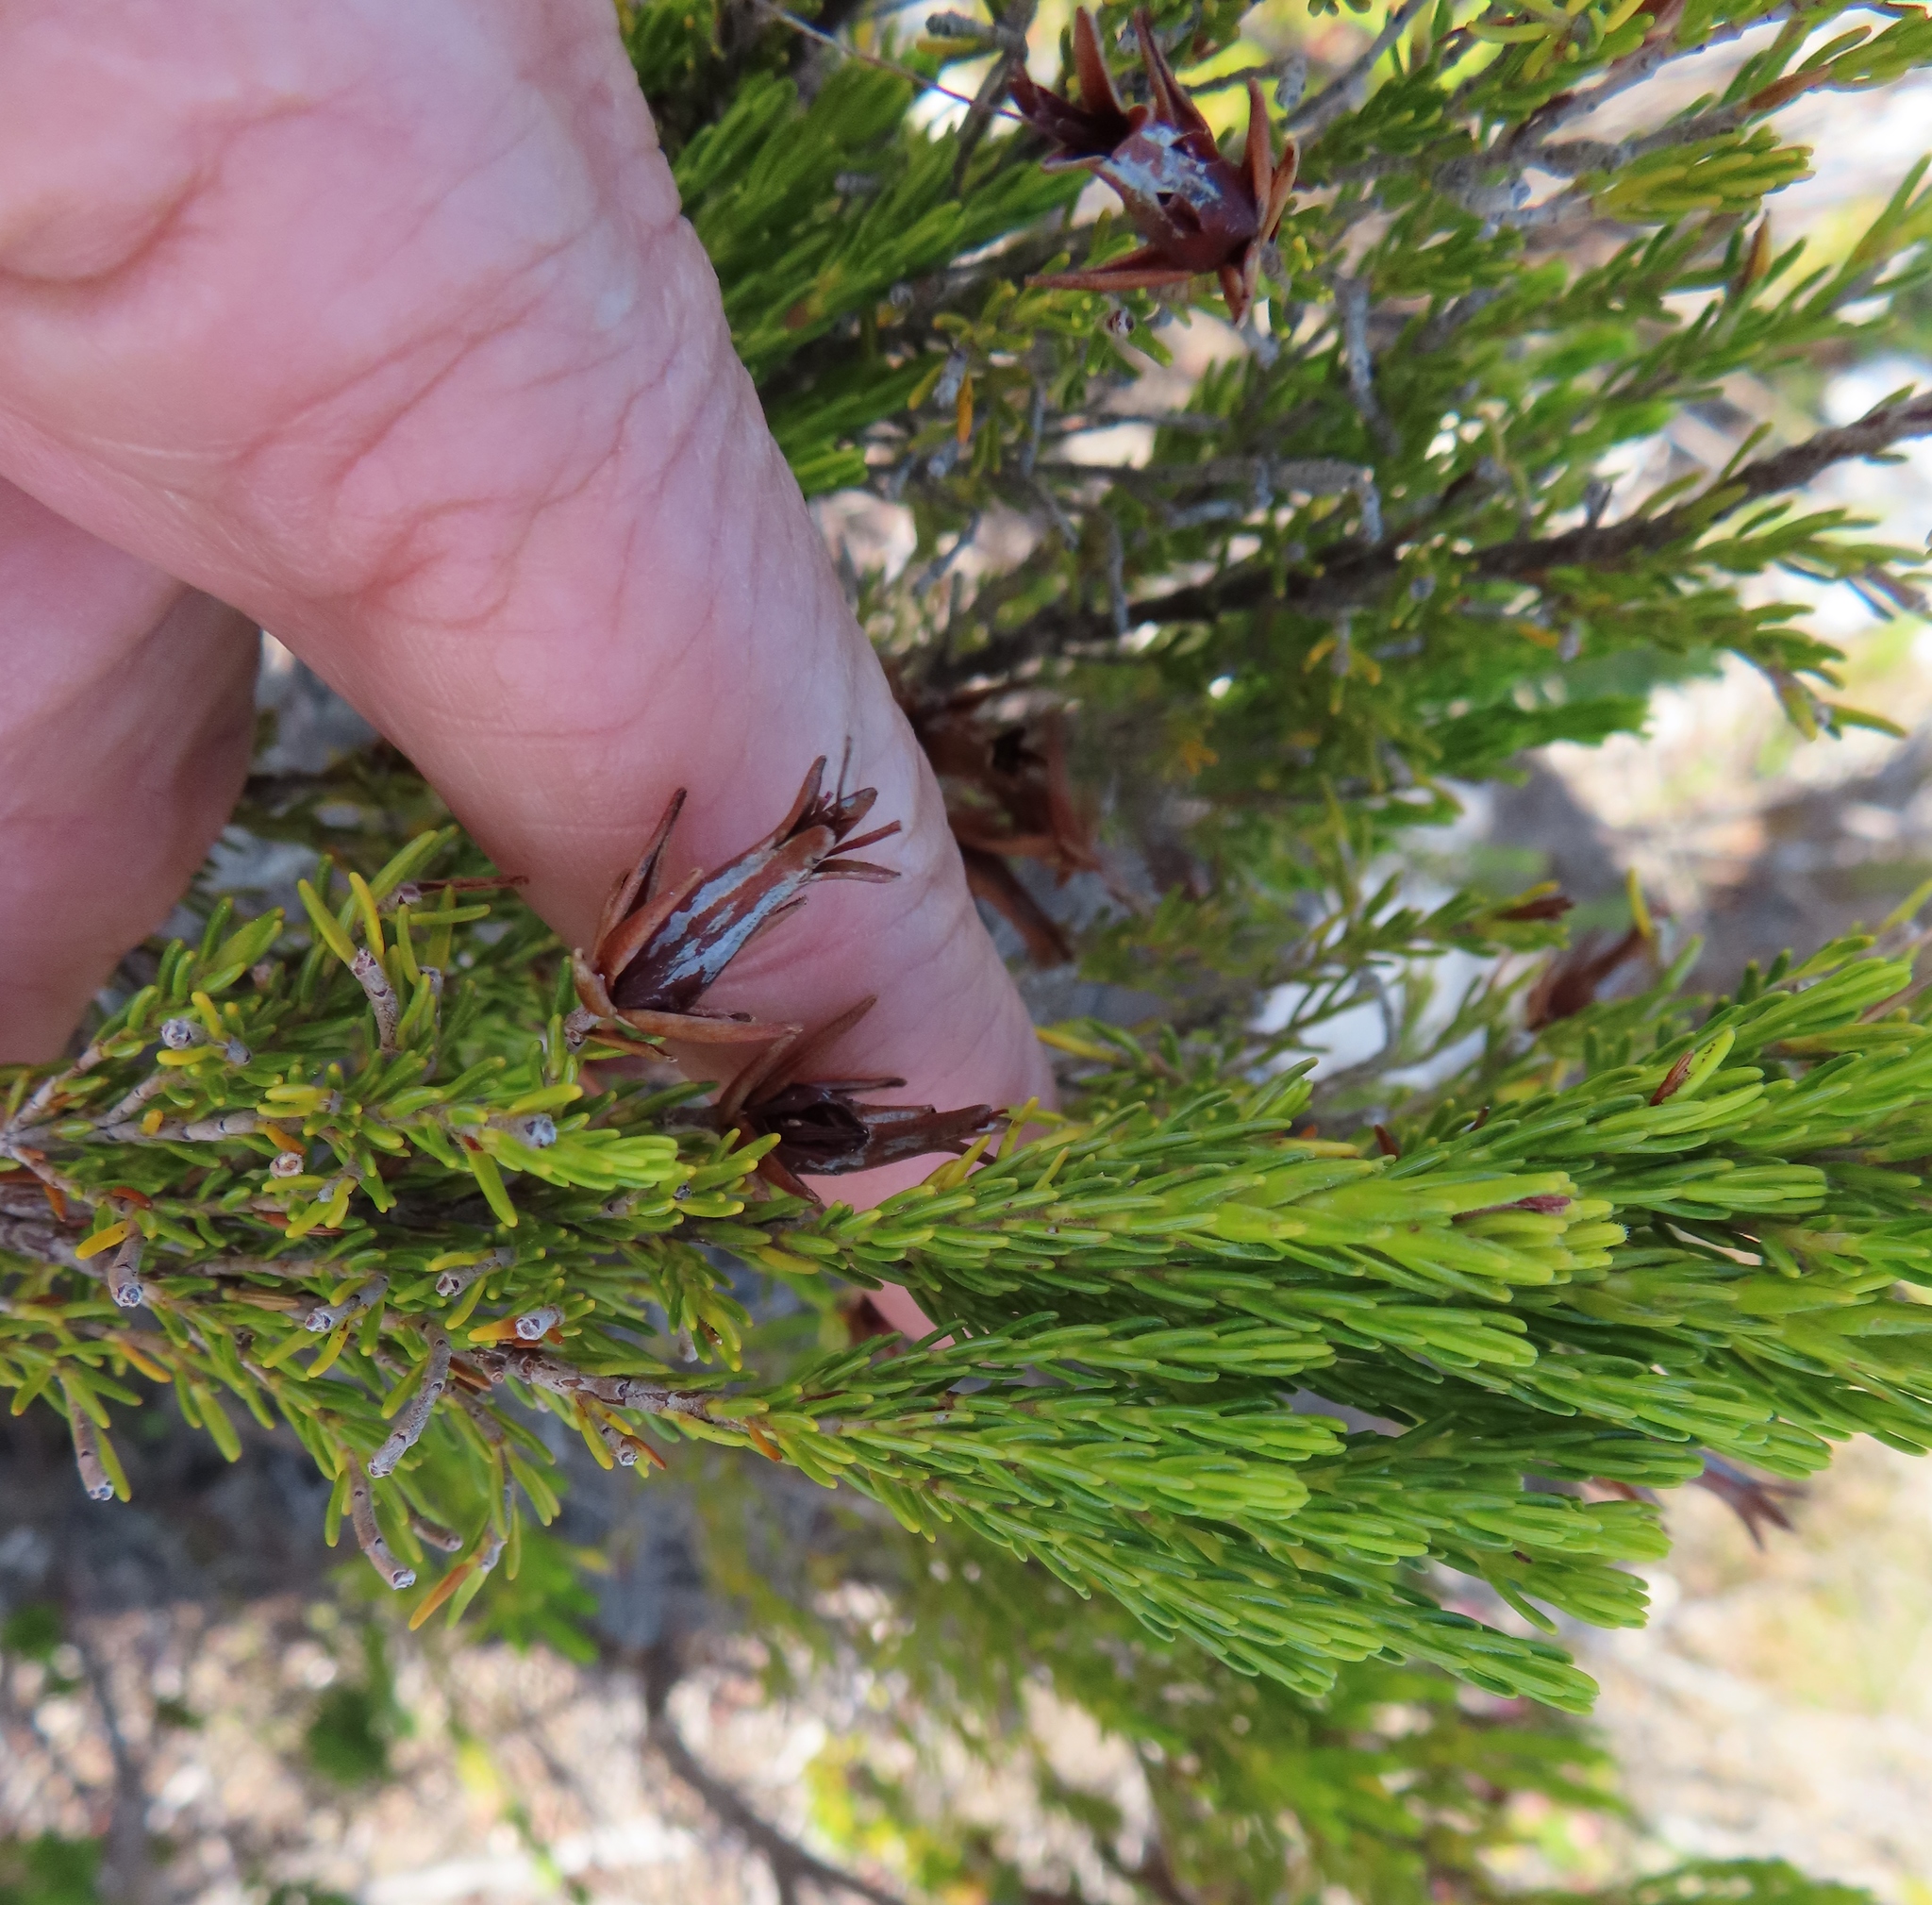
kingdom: Plantae
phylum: Tracheophyta
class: Magnoliopsida
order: Ericales
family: Ericaceae
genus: Erica
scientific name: Erica melastoma
